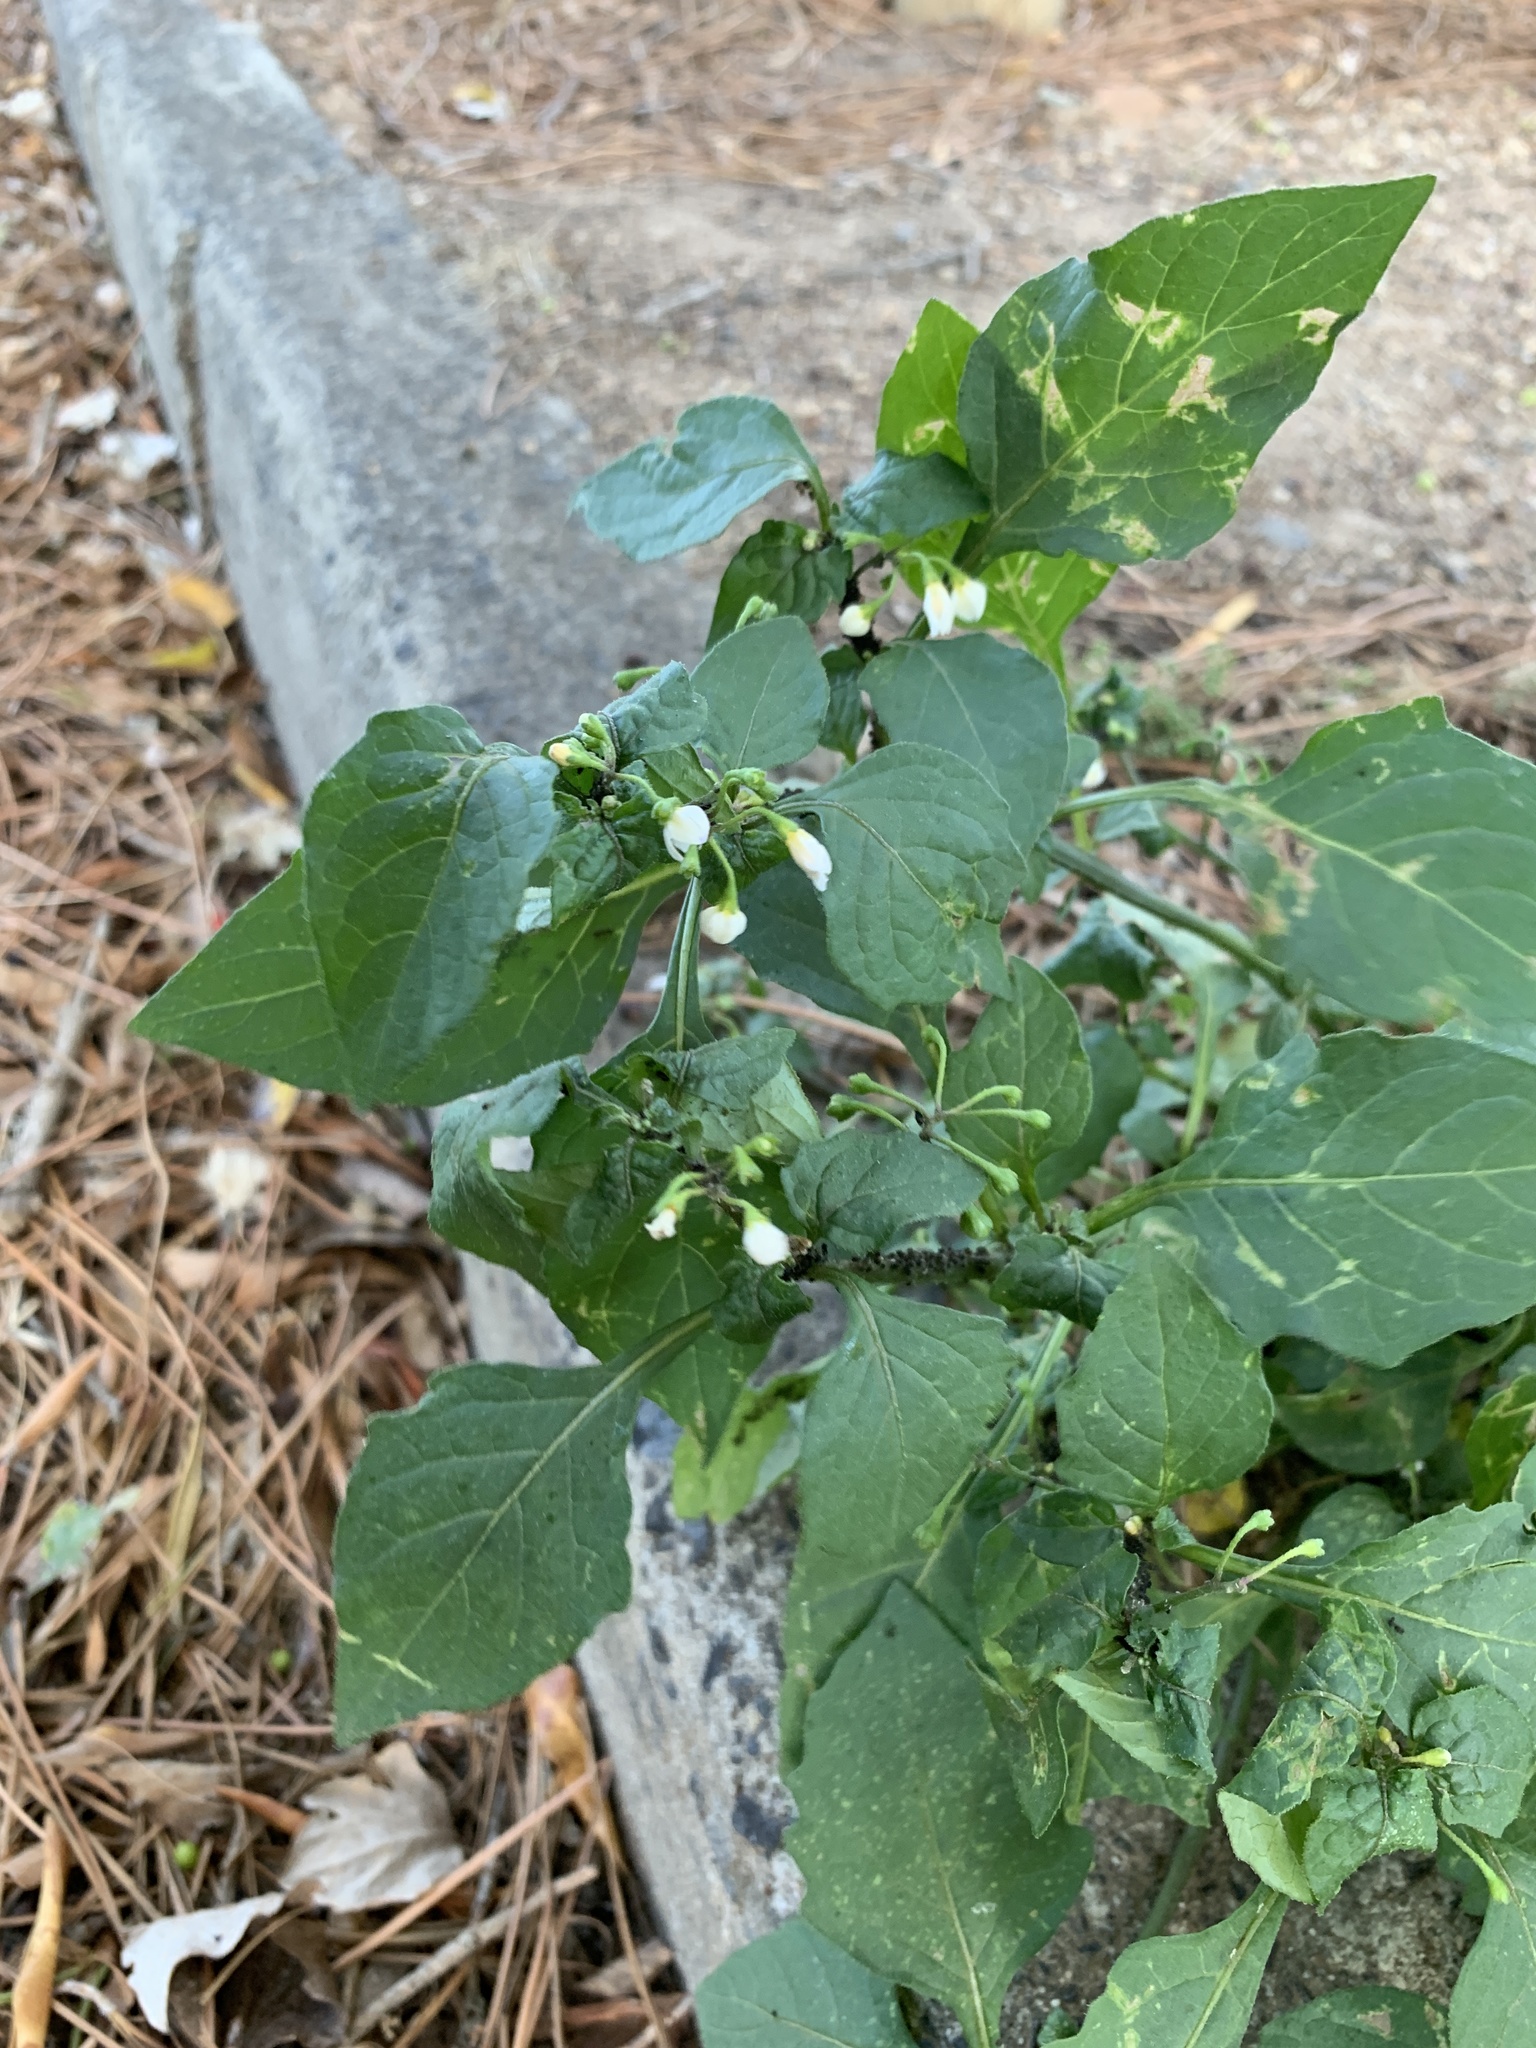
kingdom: Plantae
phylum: Tracheophyta
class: Magnoliopsida
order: Solanales
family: Solanaceae
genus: Solanum
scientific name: Solanum nigrum
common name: Black nightshade
